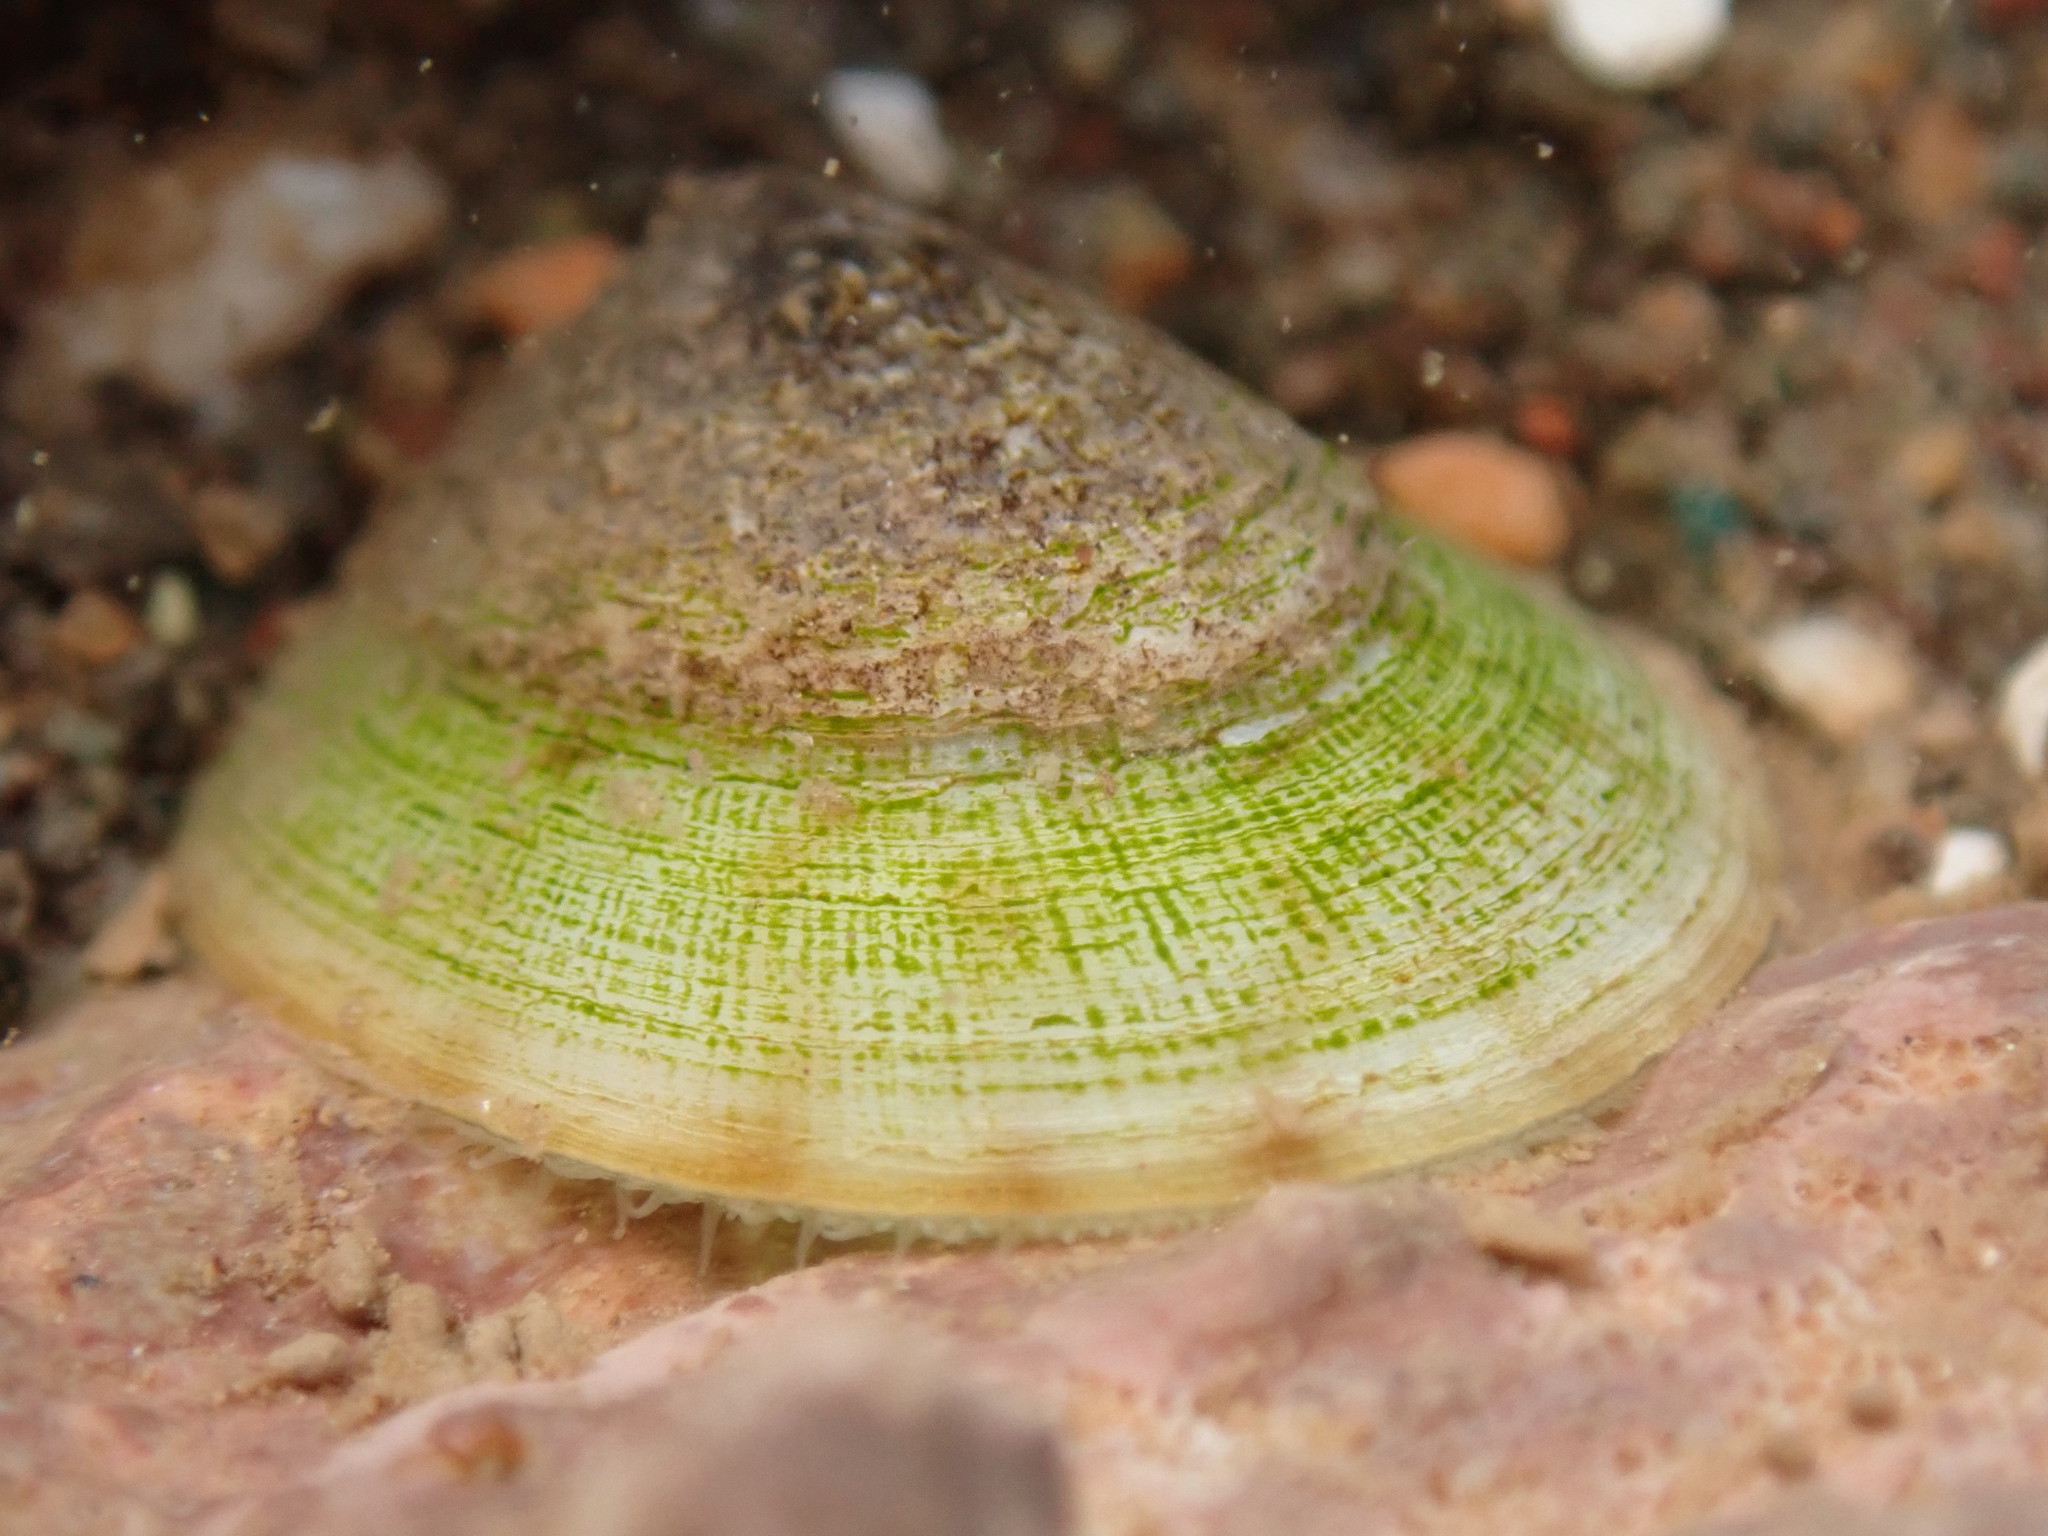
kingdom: Animalia
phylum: Mollusca
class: Gastropoda
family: Lottiidae
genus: Testudinalia
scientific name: Testudinalia testudinalis
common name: Common tortoiseshell limpet
